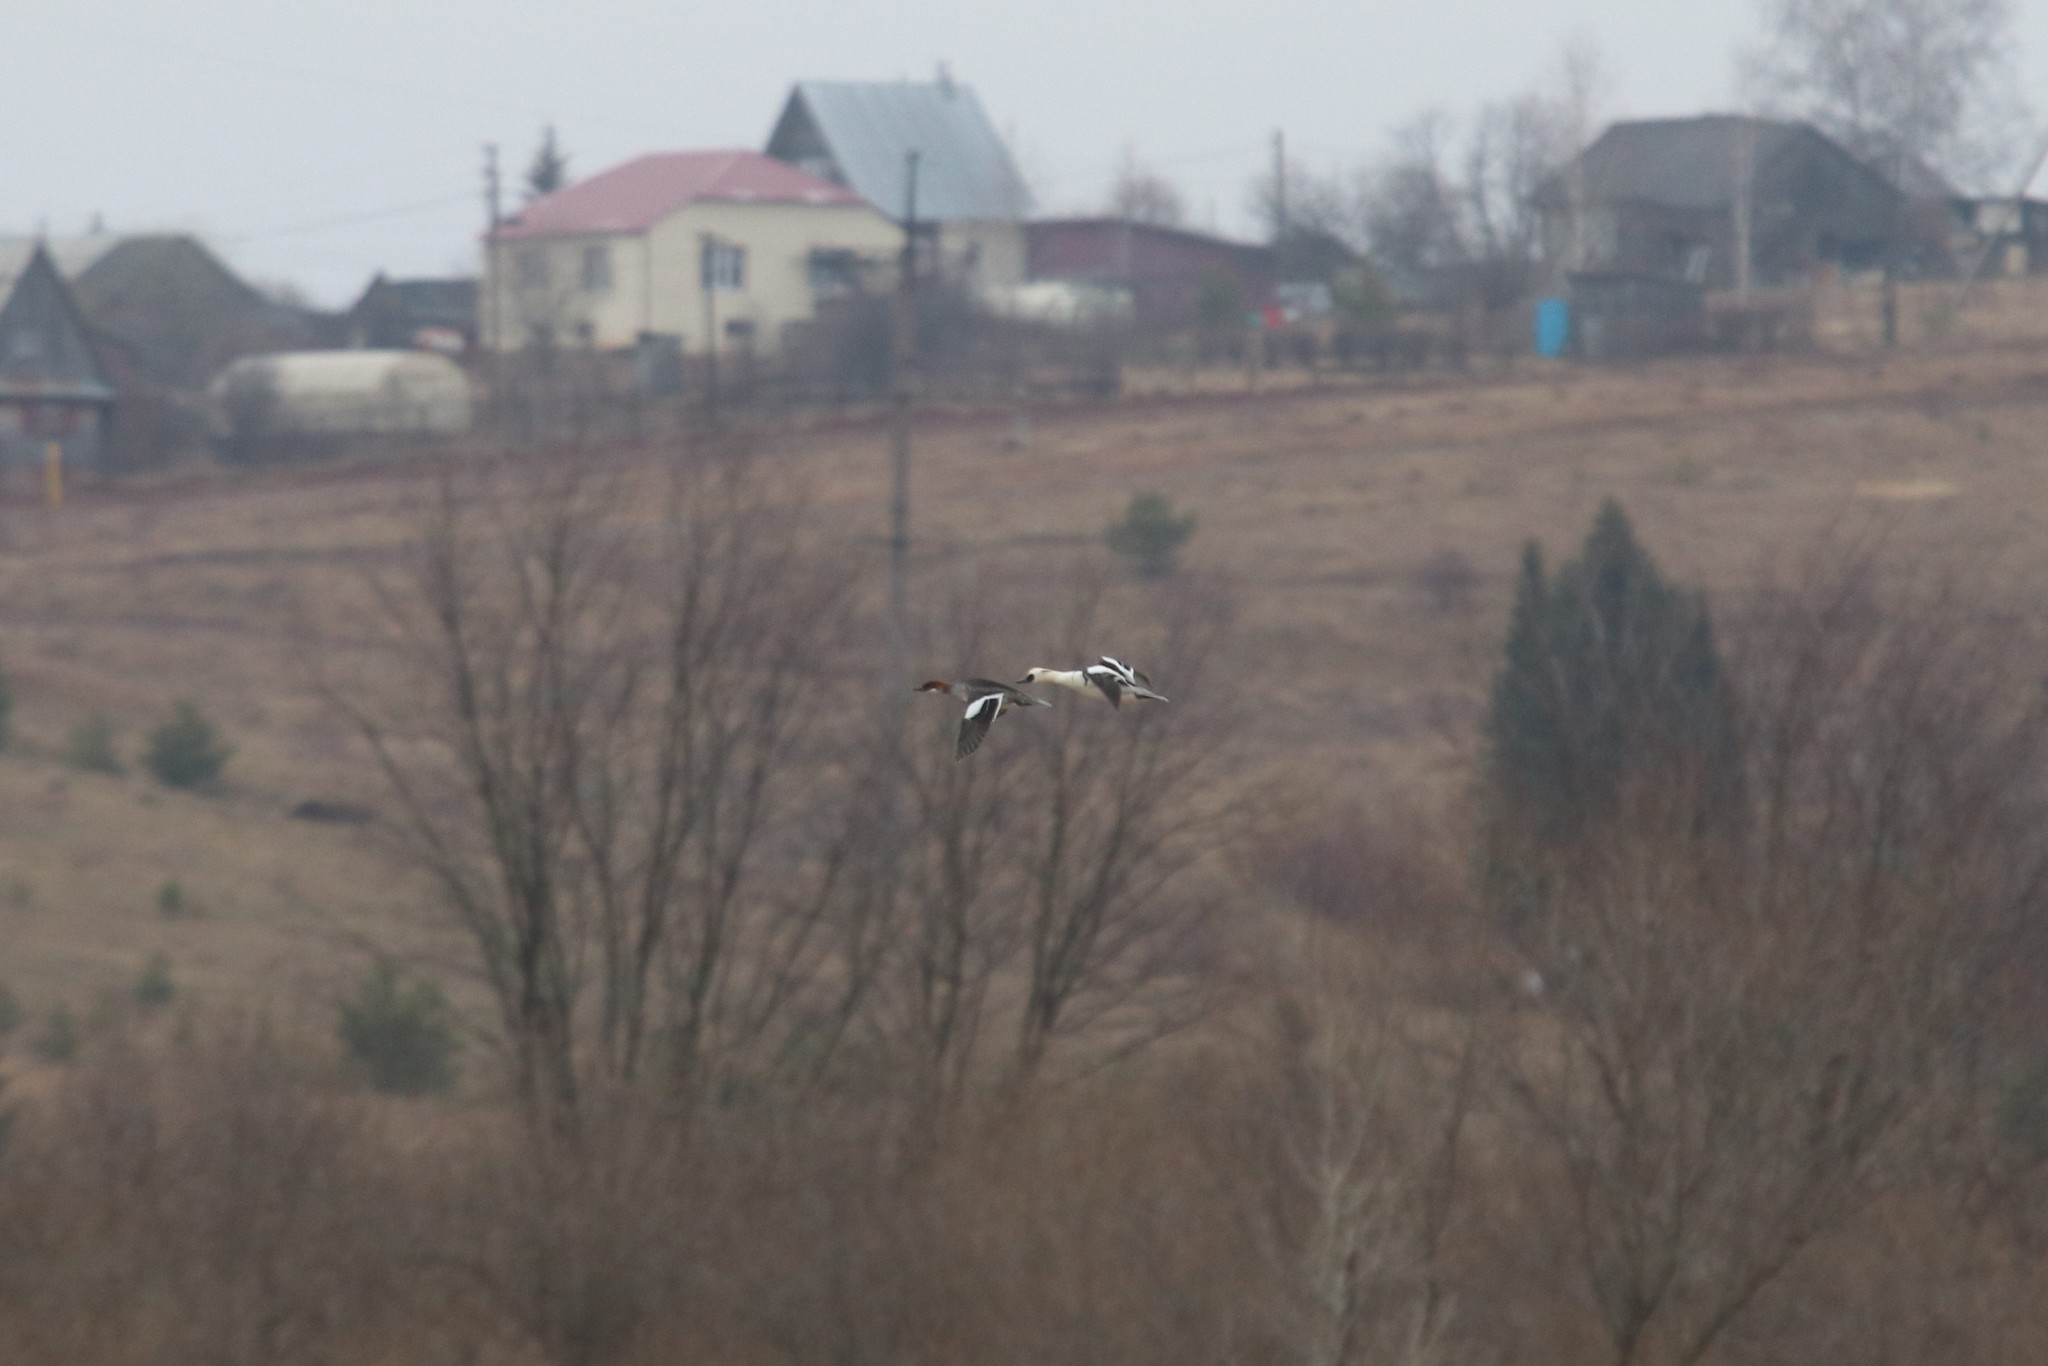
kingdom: Animalia
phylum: Chordata
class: Aves
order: Anseriformes
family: Anatidae
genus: Mergellus
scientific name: Mergellus albellus
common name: Smew
